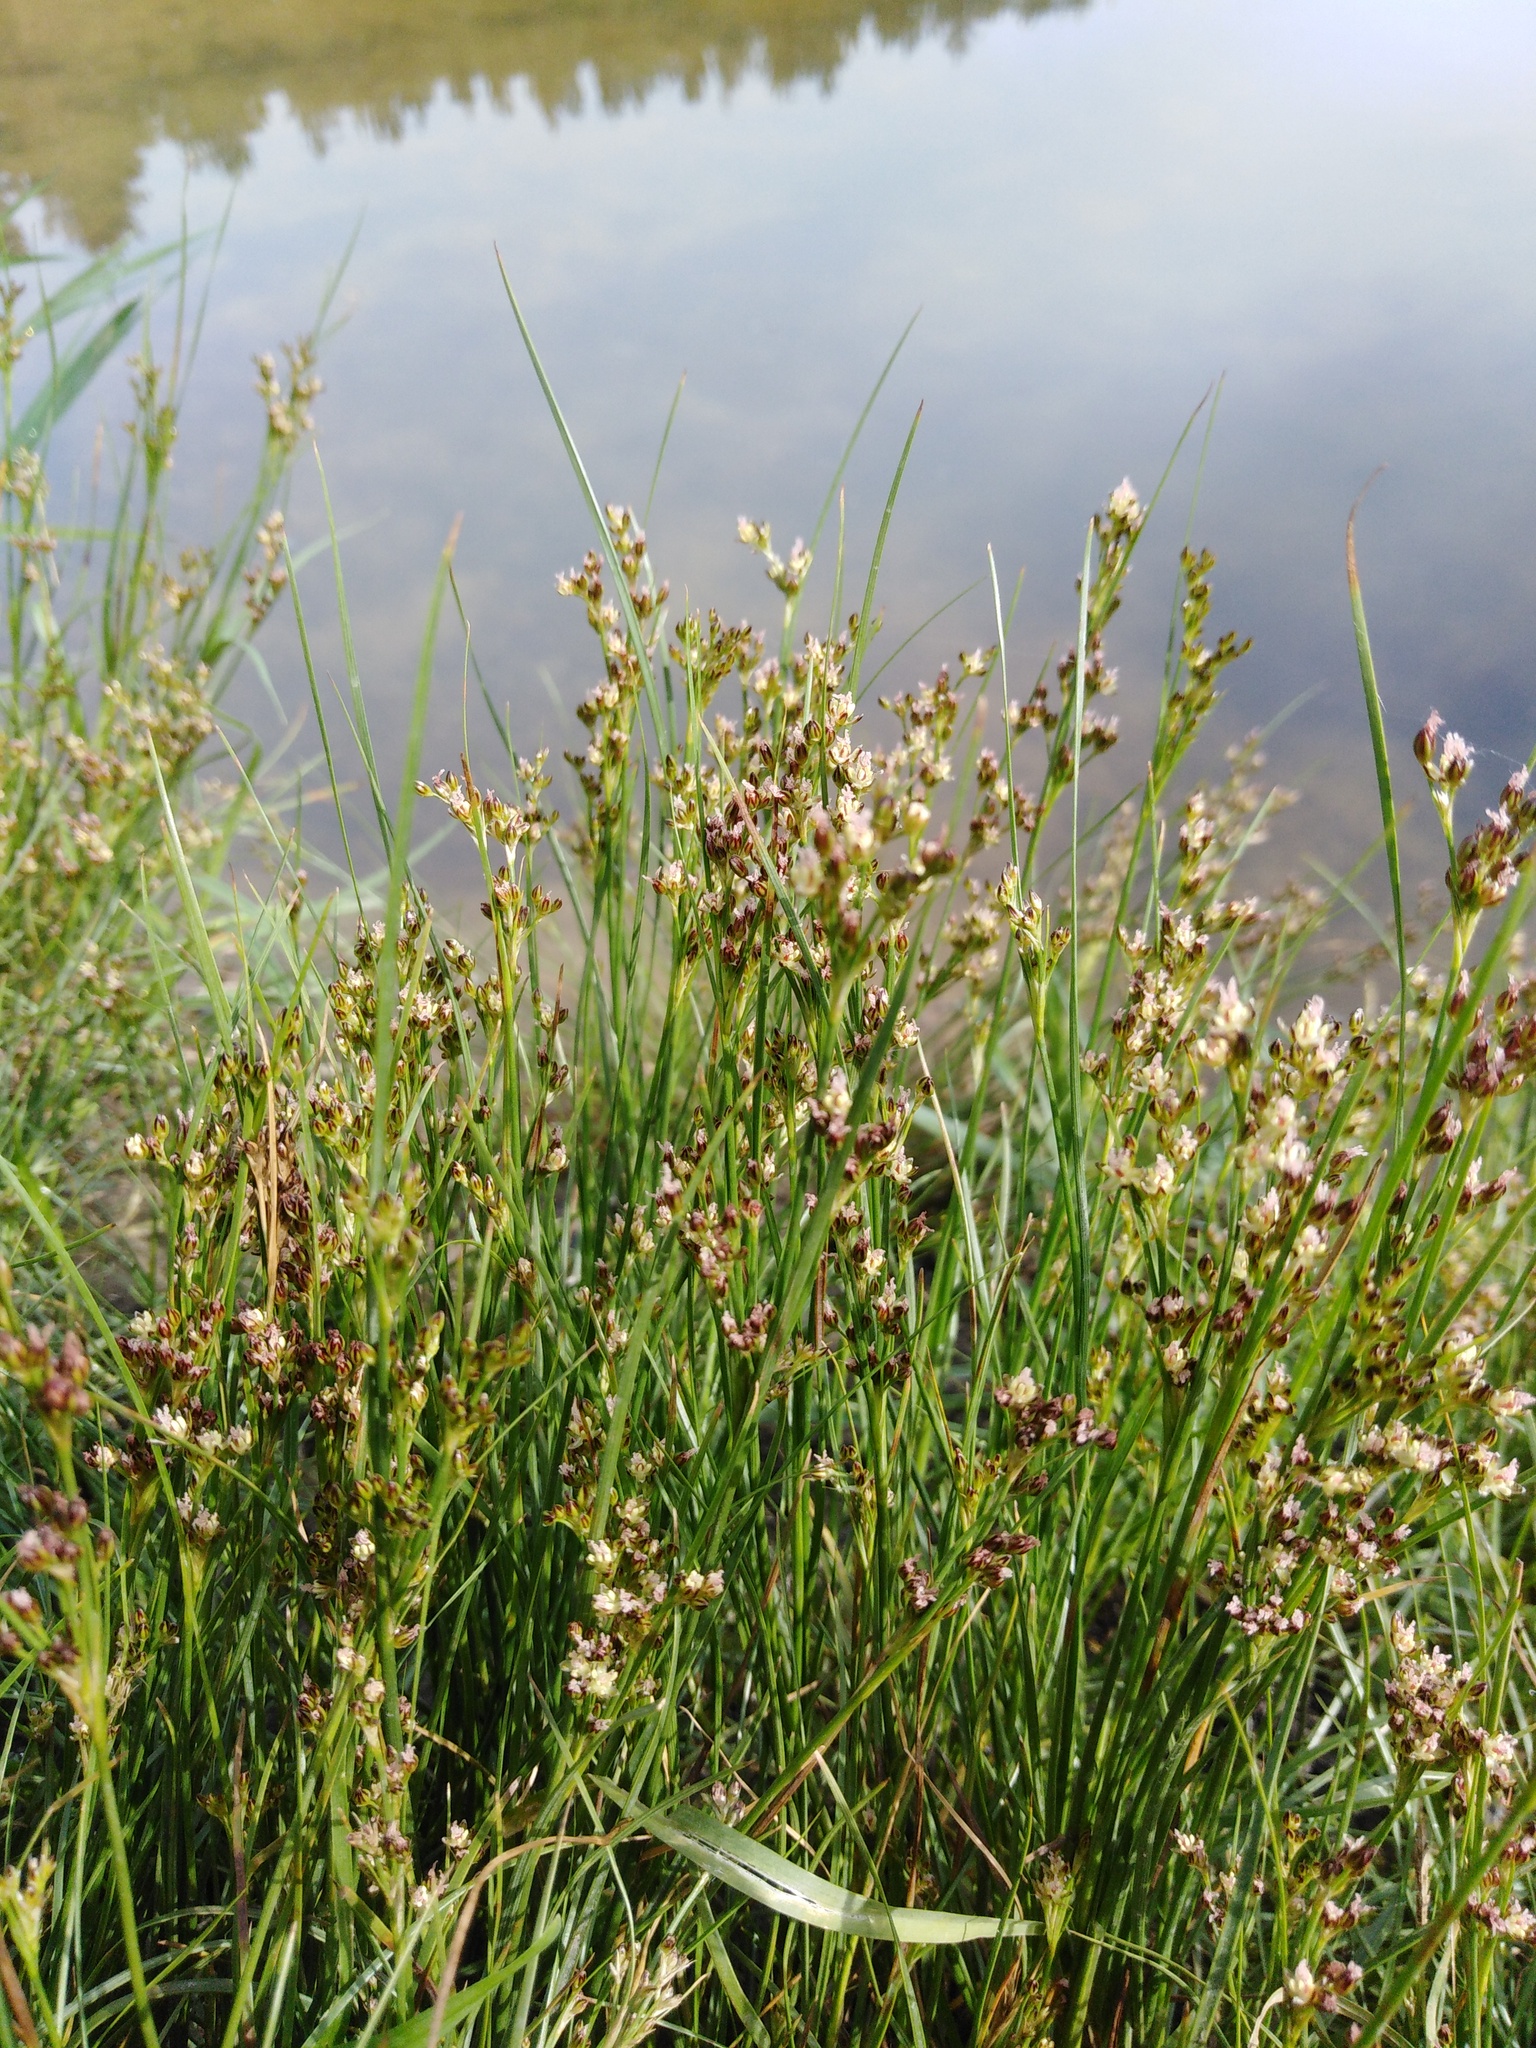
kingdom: Plantae
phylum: Tracheophyta
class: Liliopsida
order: Poales
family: Juncaceae
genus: Juncus
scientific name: Juncus compressus
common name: Round-fruited rush
